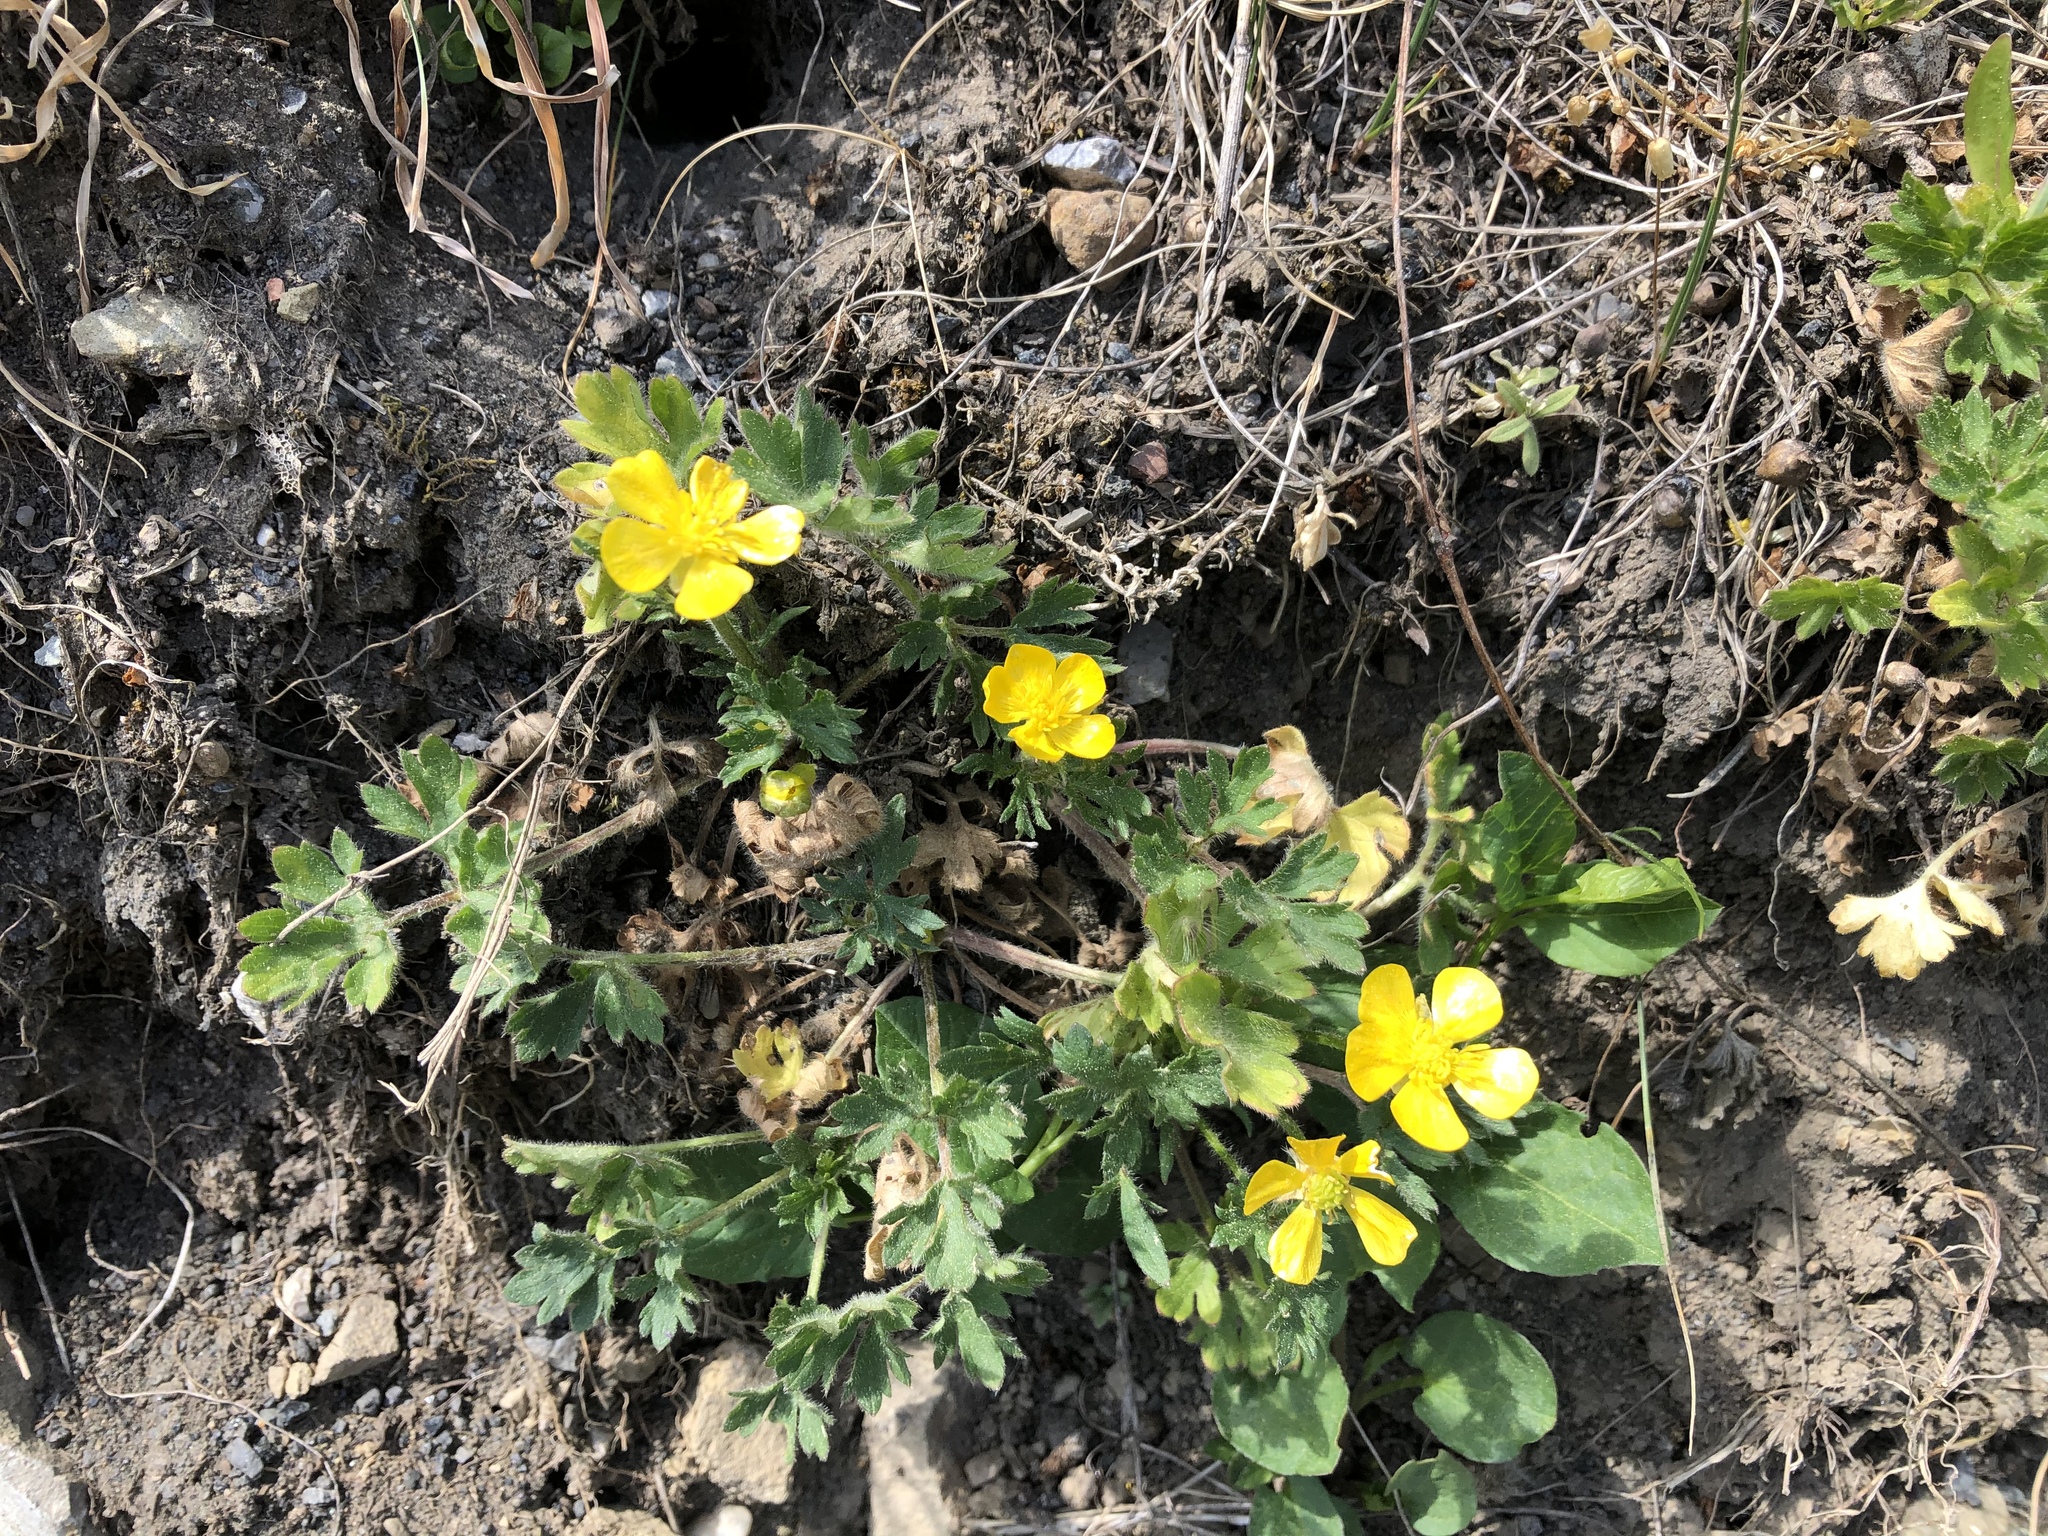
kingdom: Plantae
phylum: Tracheophyta
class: Magnoliopsida
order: Ranunculales
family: Ranunculaceae
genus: Ranunculus
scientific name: Ranunculus bulbosus
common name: Bulbous buttercup
